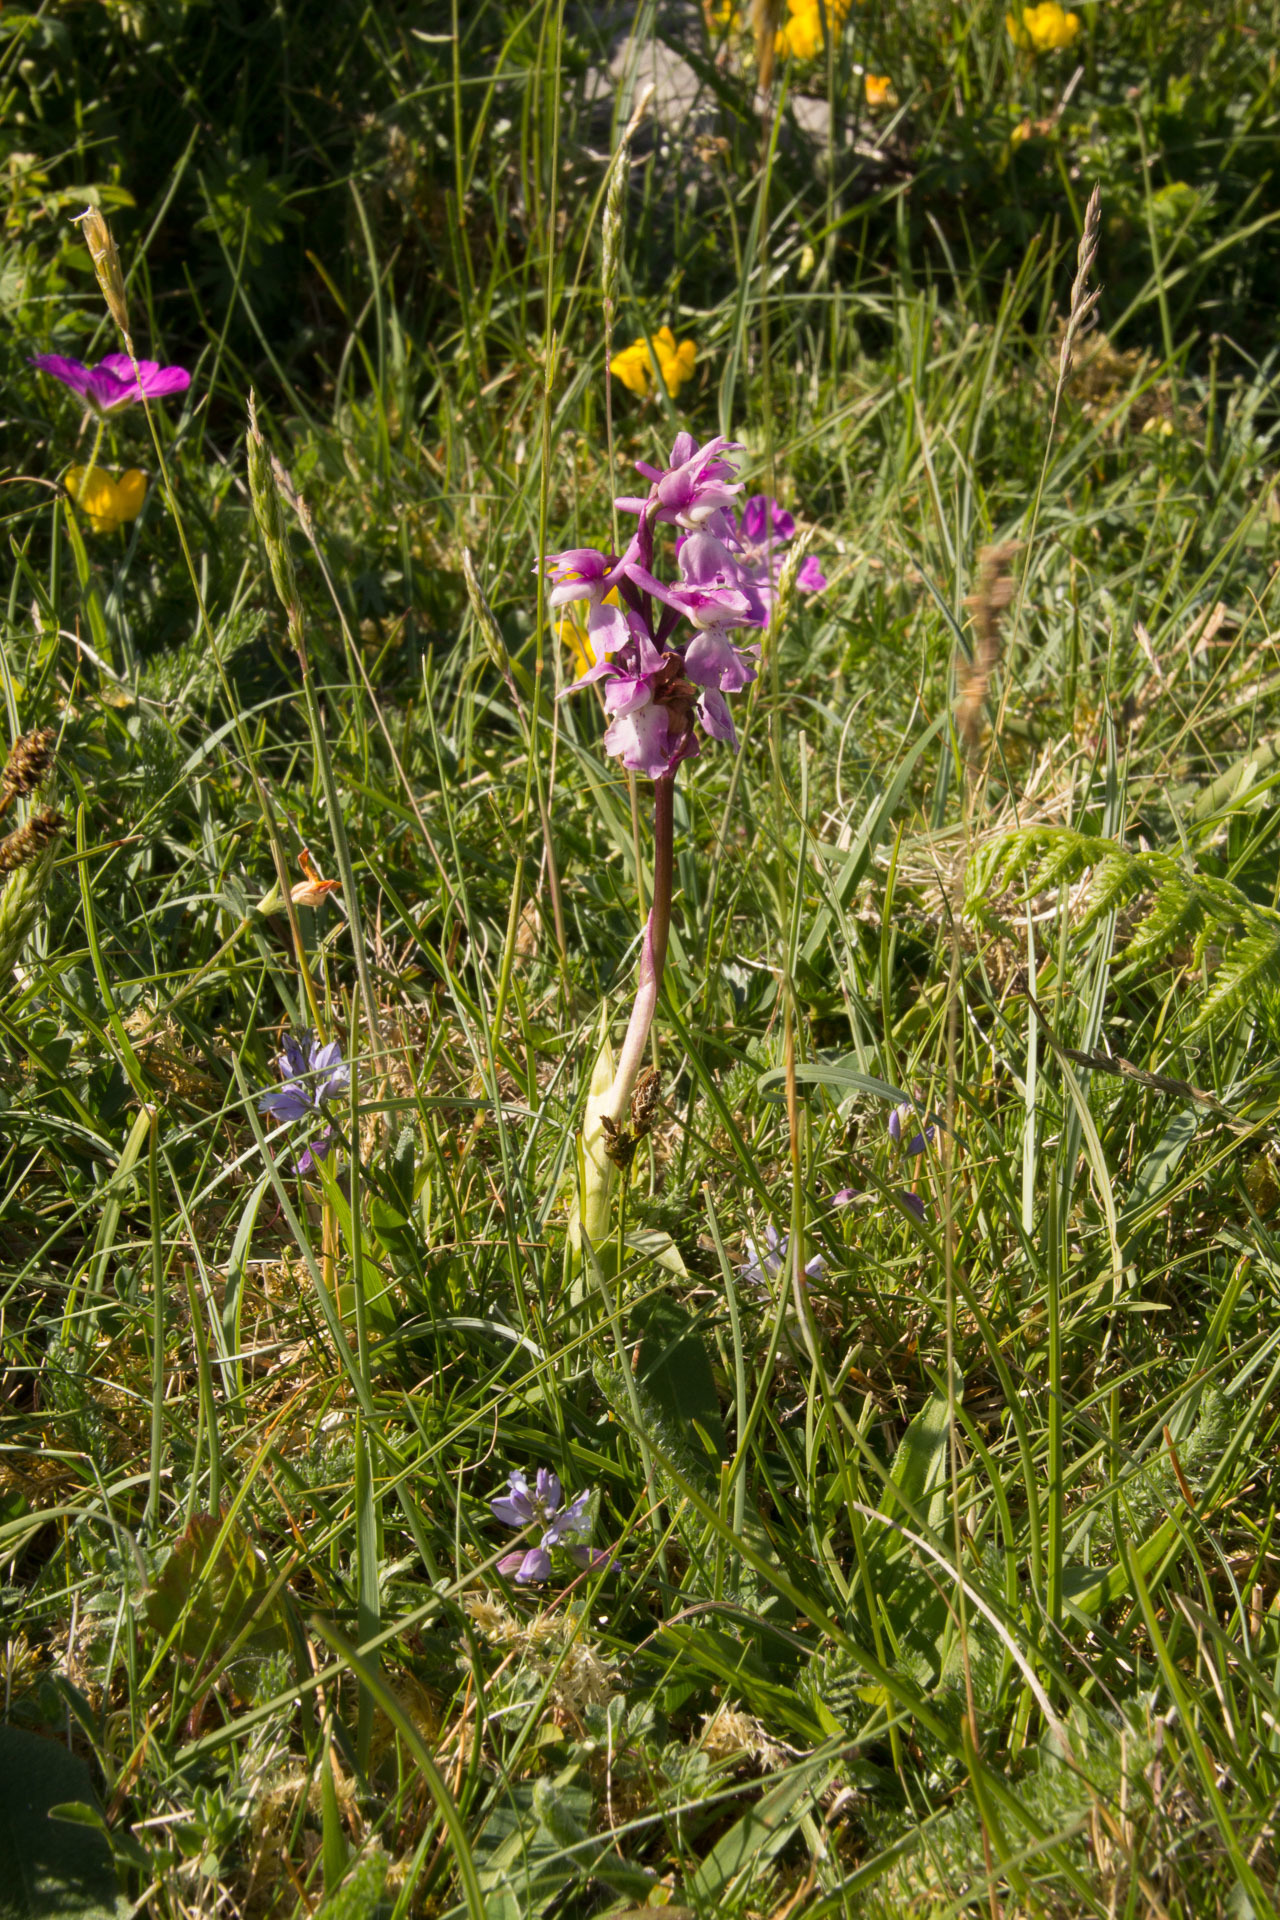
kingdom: Plantae
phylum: Tracheophyta
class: Liliopsida
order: Asparagales
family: Orchidaceae
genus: Orchis
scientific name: Orchis mascula
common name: Early-purple orchid
